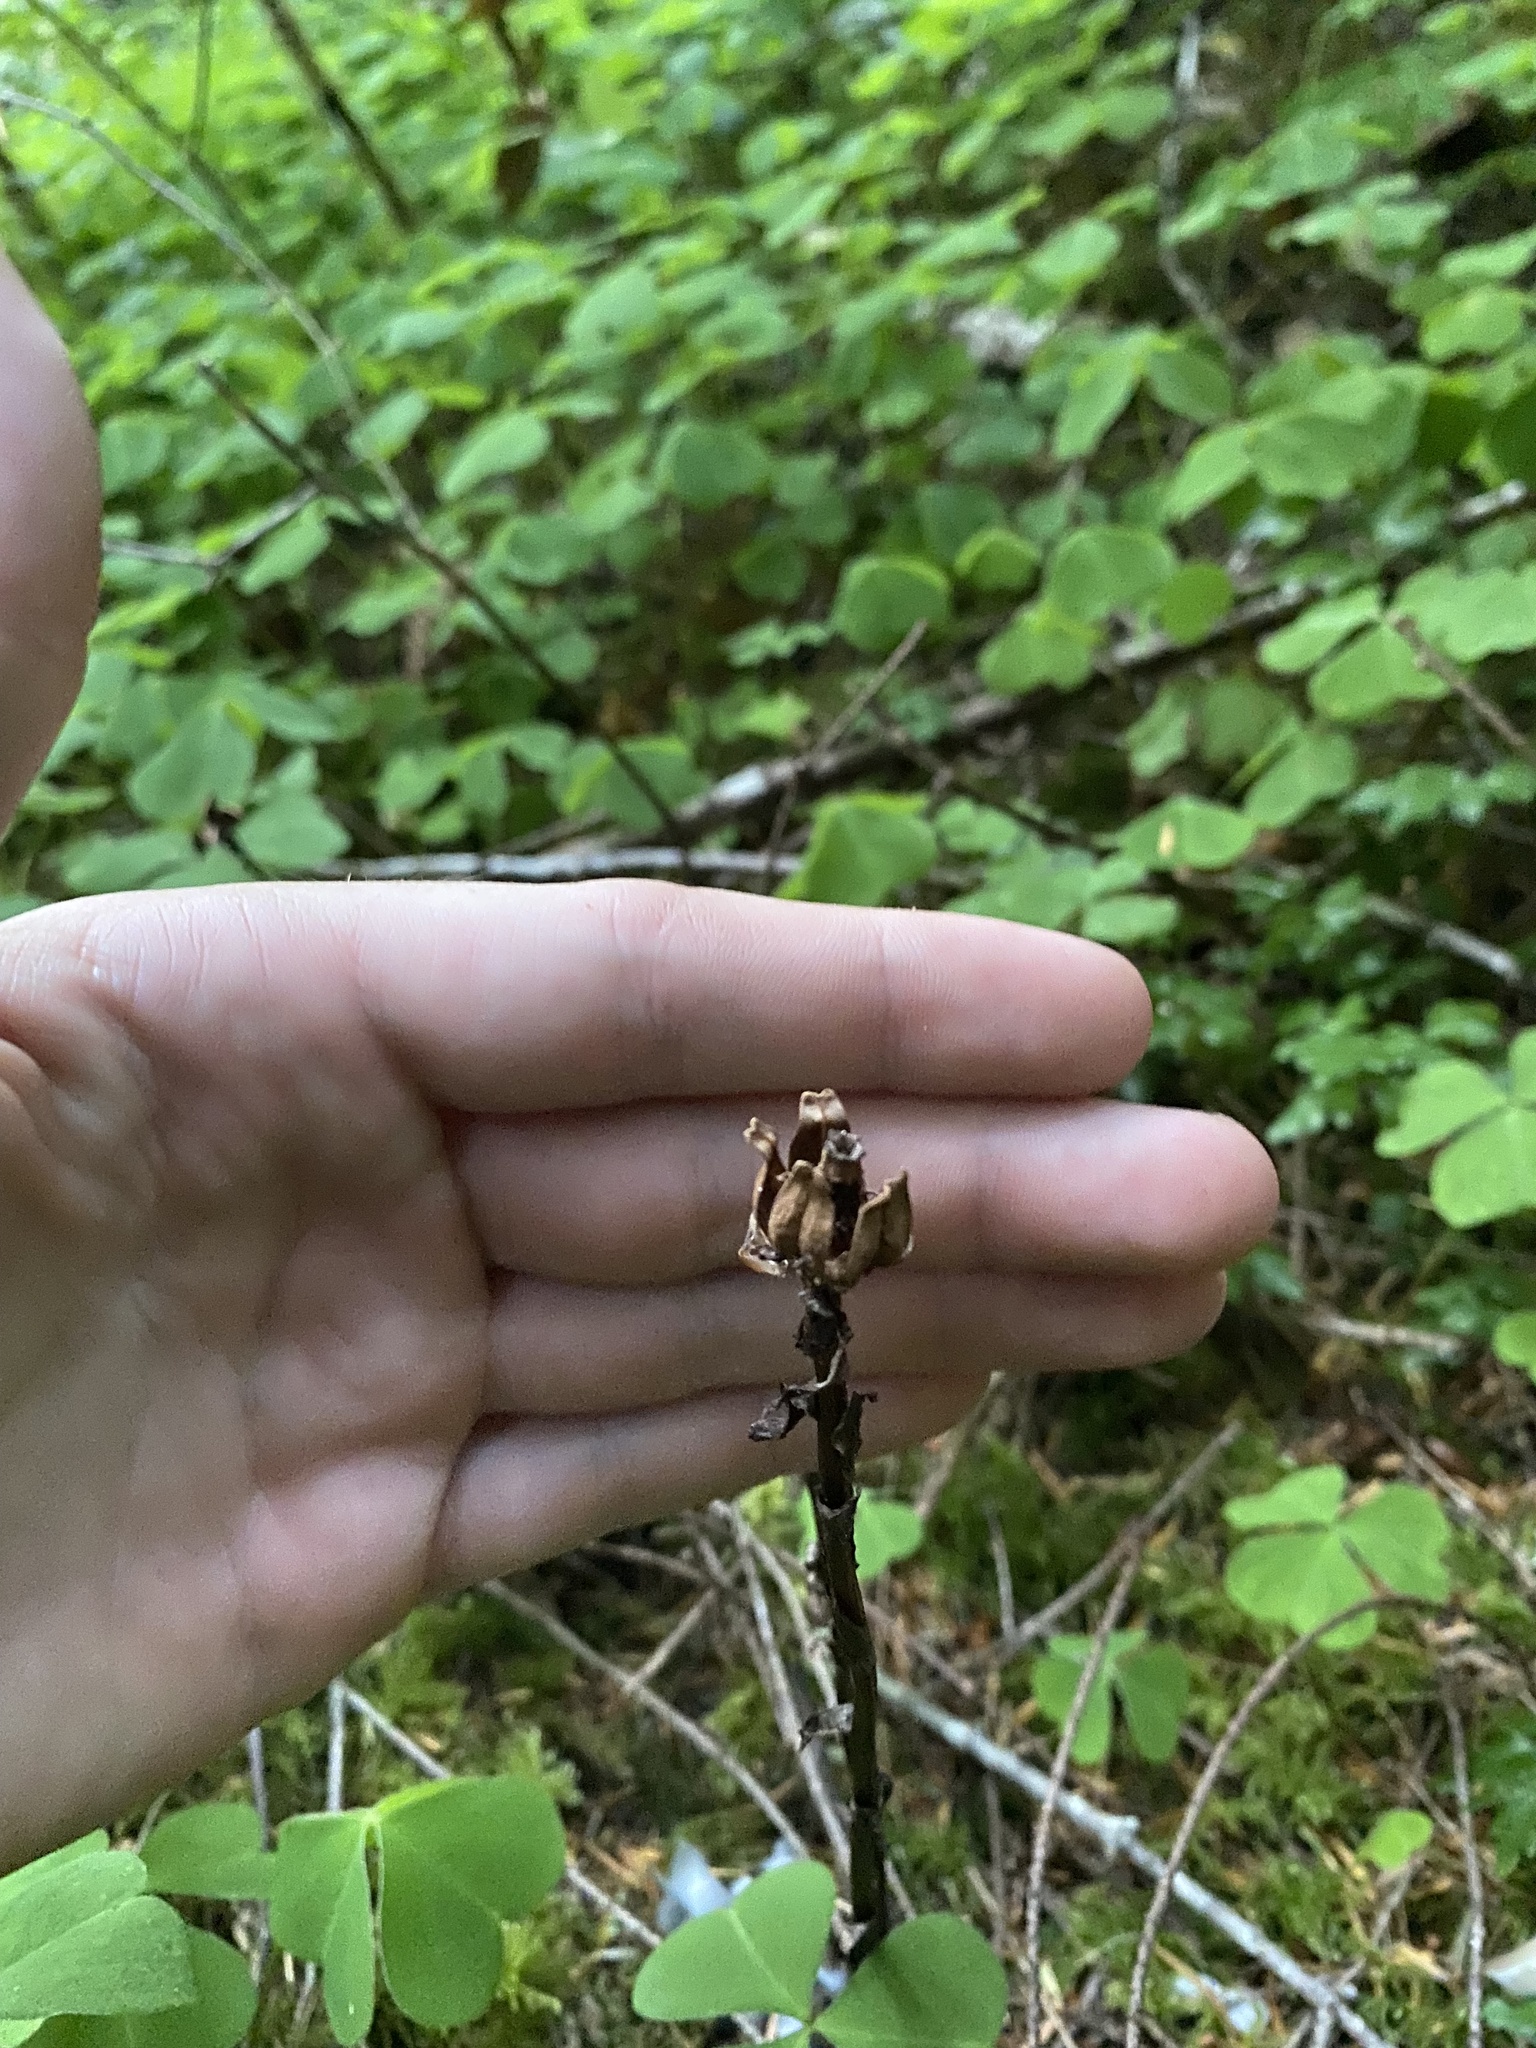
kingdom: Plantae
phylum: Tracheophyta
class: Magnoliopsida
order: Ericales
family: Ericaceae
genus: Monotropa
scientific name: Monotropa uniflora
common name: Convulsion root
